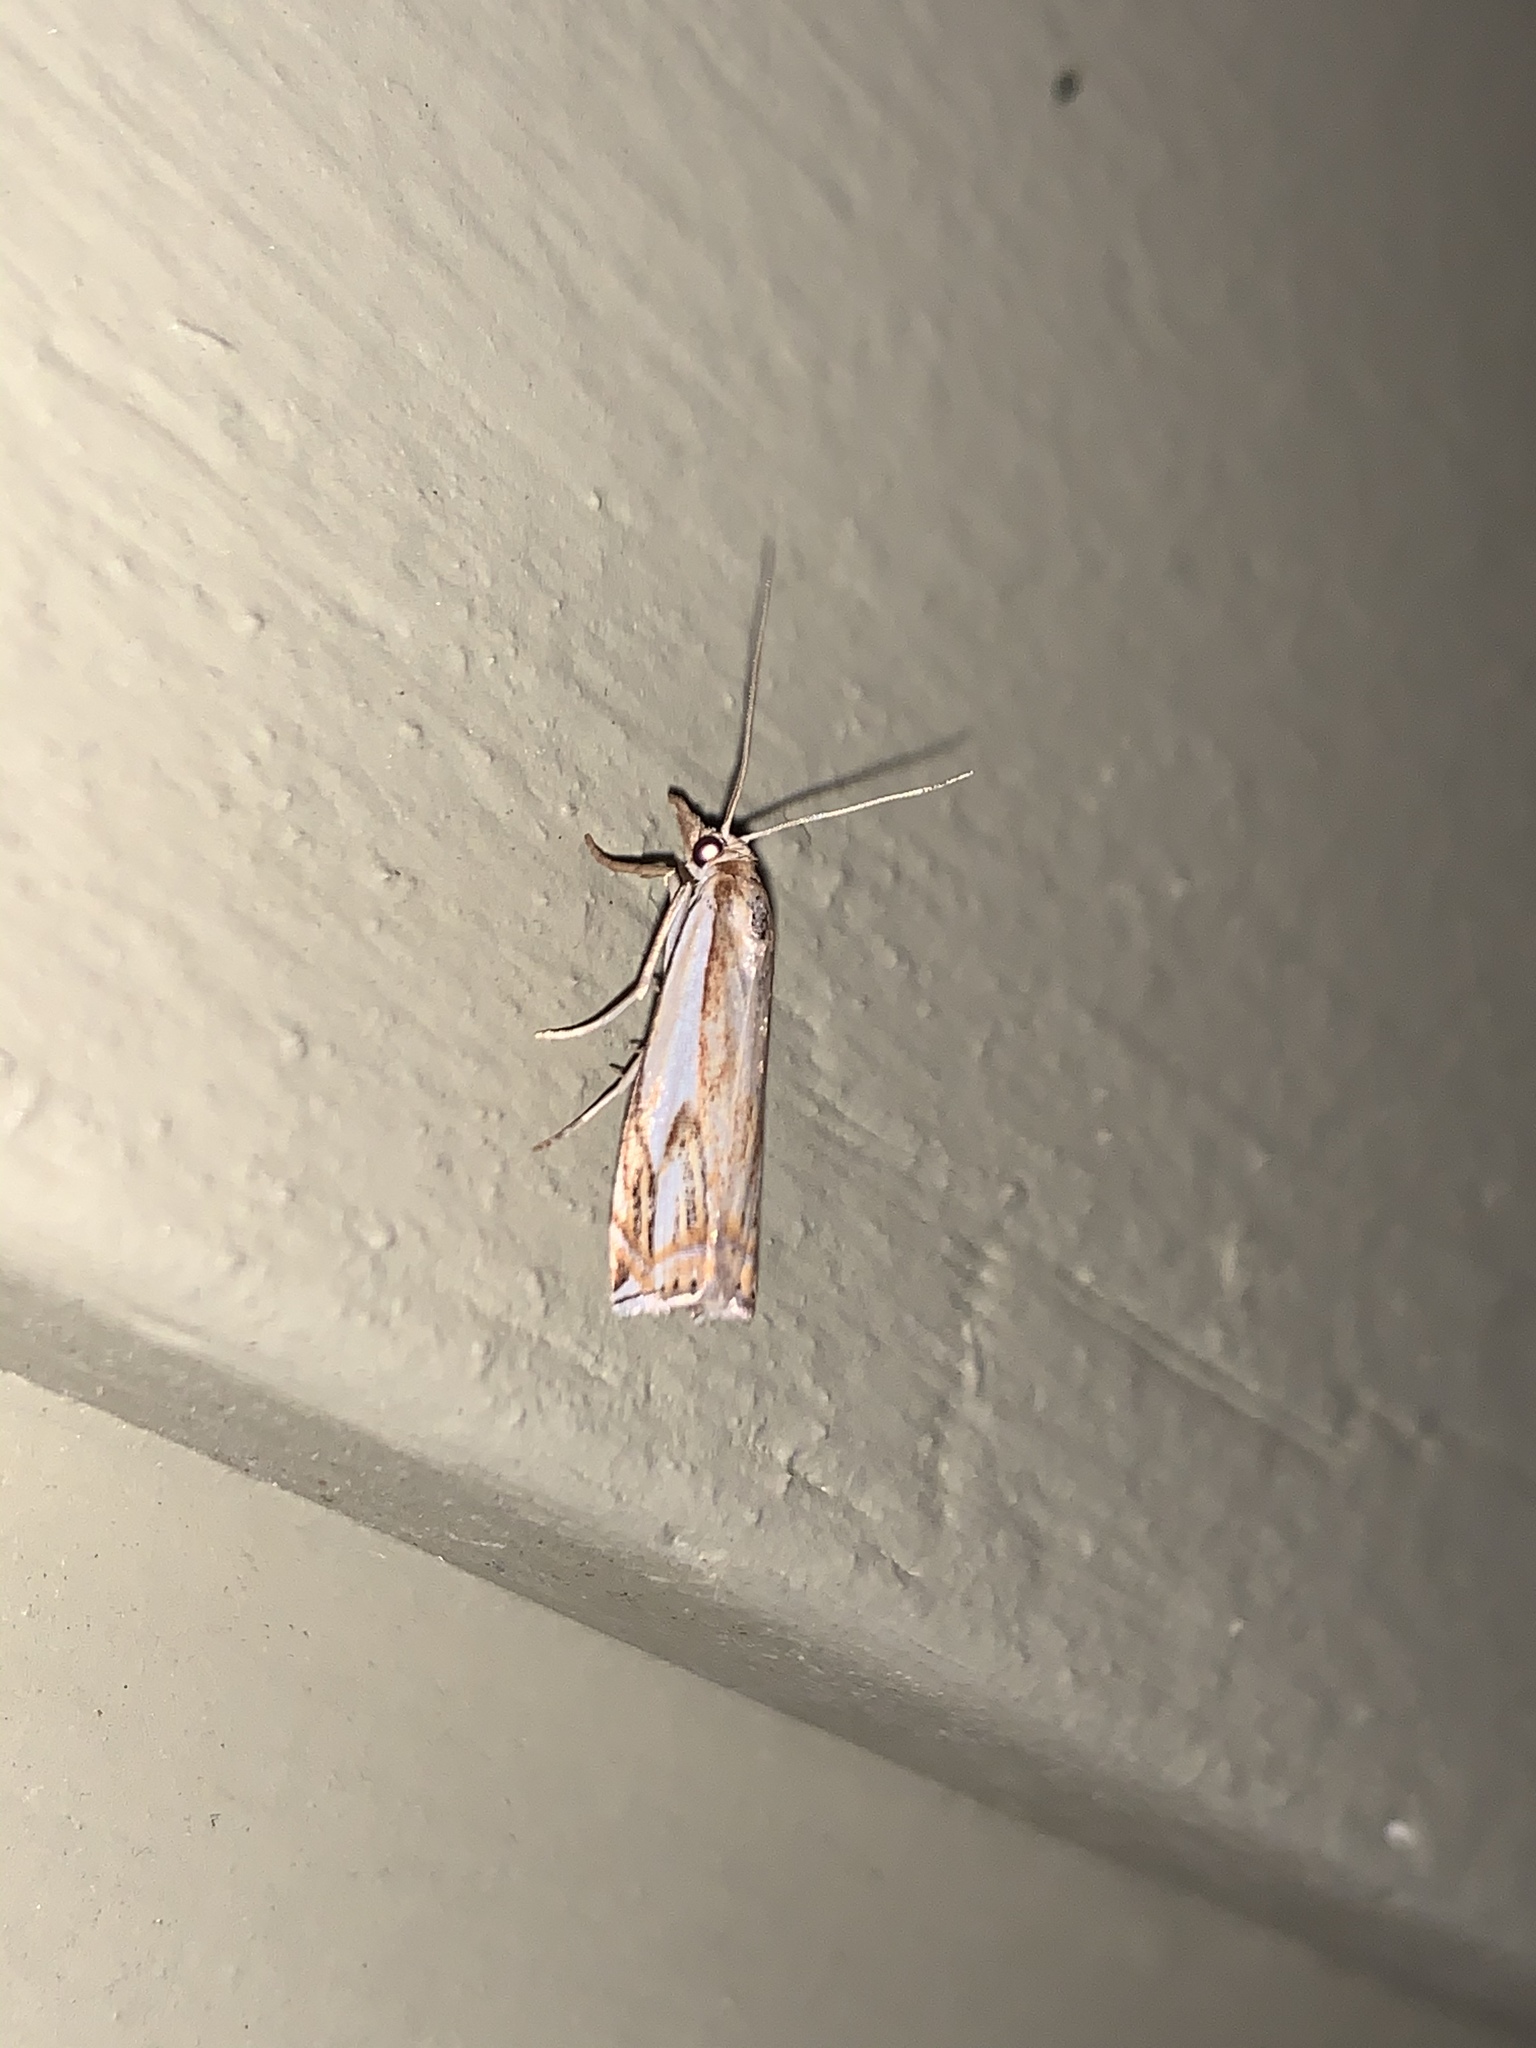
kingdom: Animalia
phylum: Arthropoda
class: Insecta
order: Lepidoptera
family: Crambidae
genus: Crambus
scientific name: Crambus agitatellus
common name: Double-banded grass-veneer
